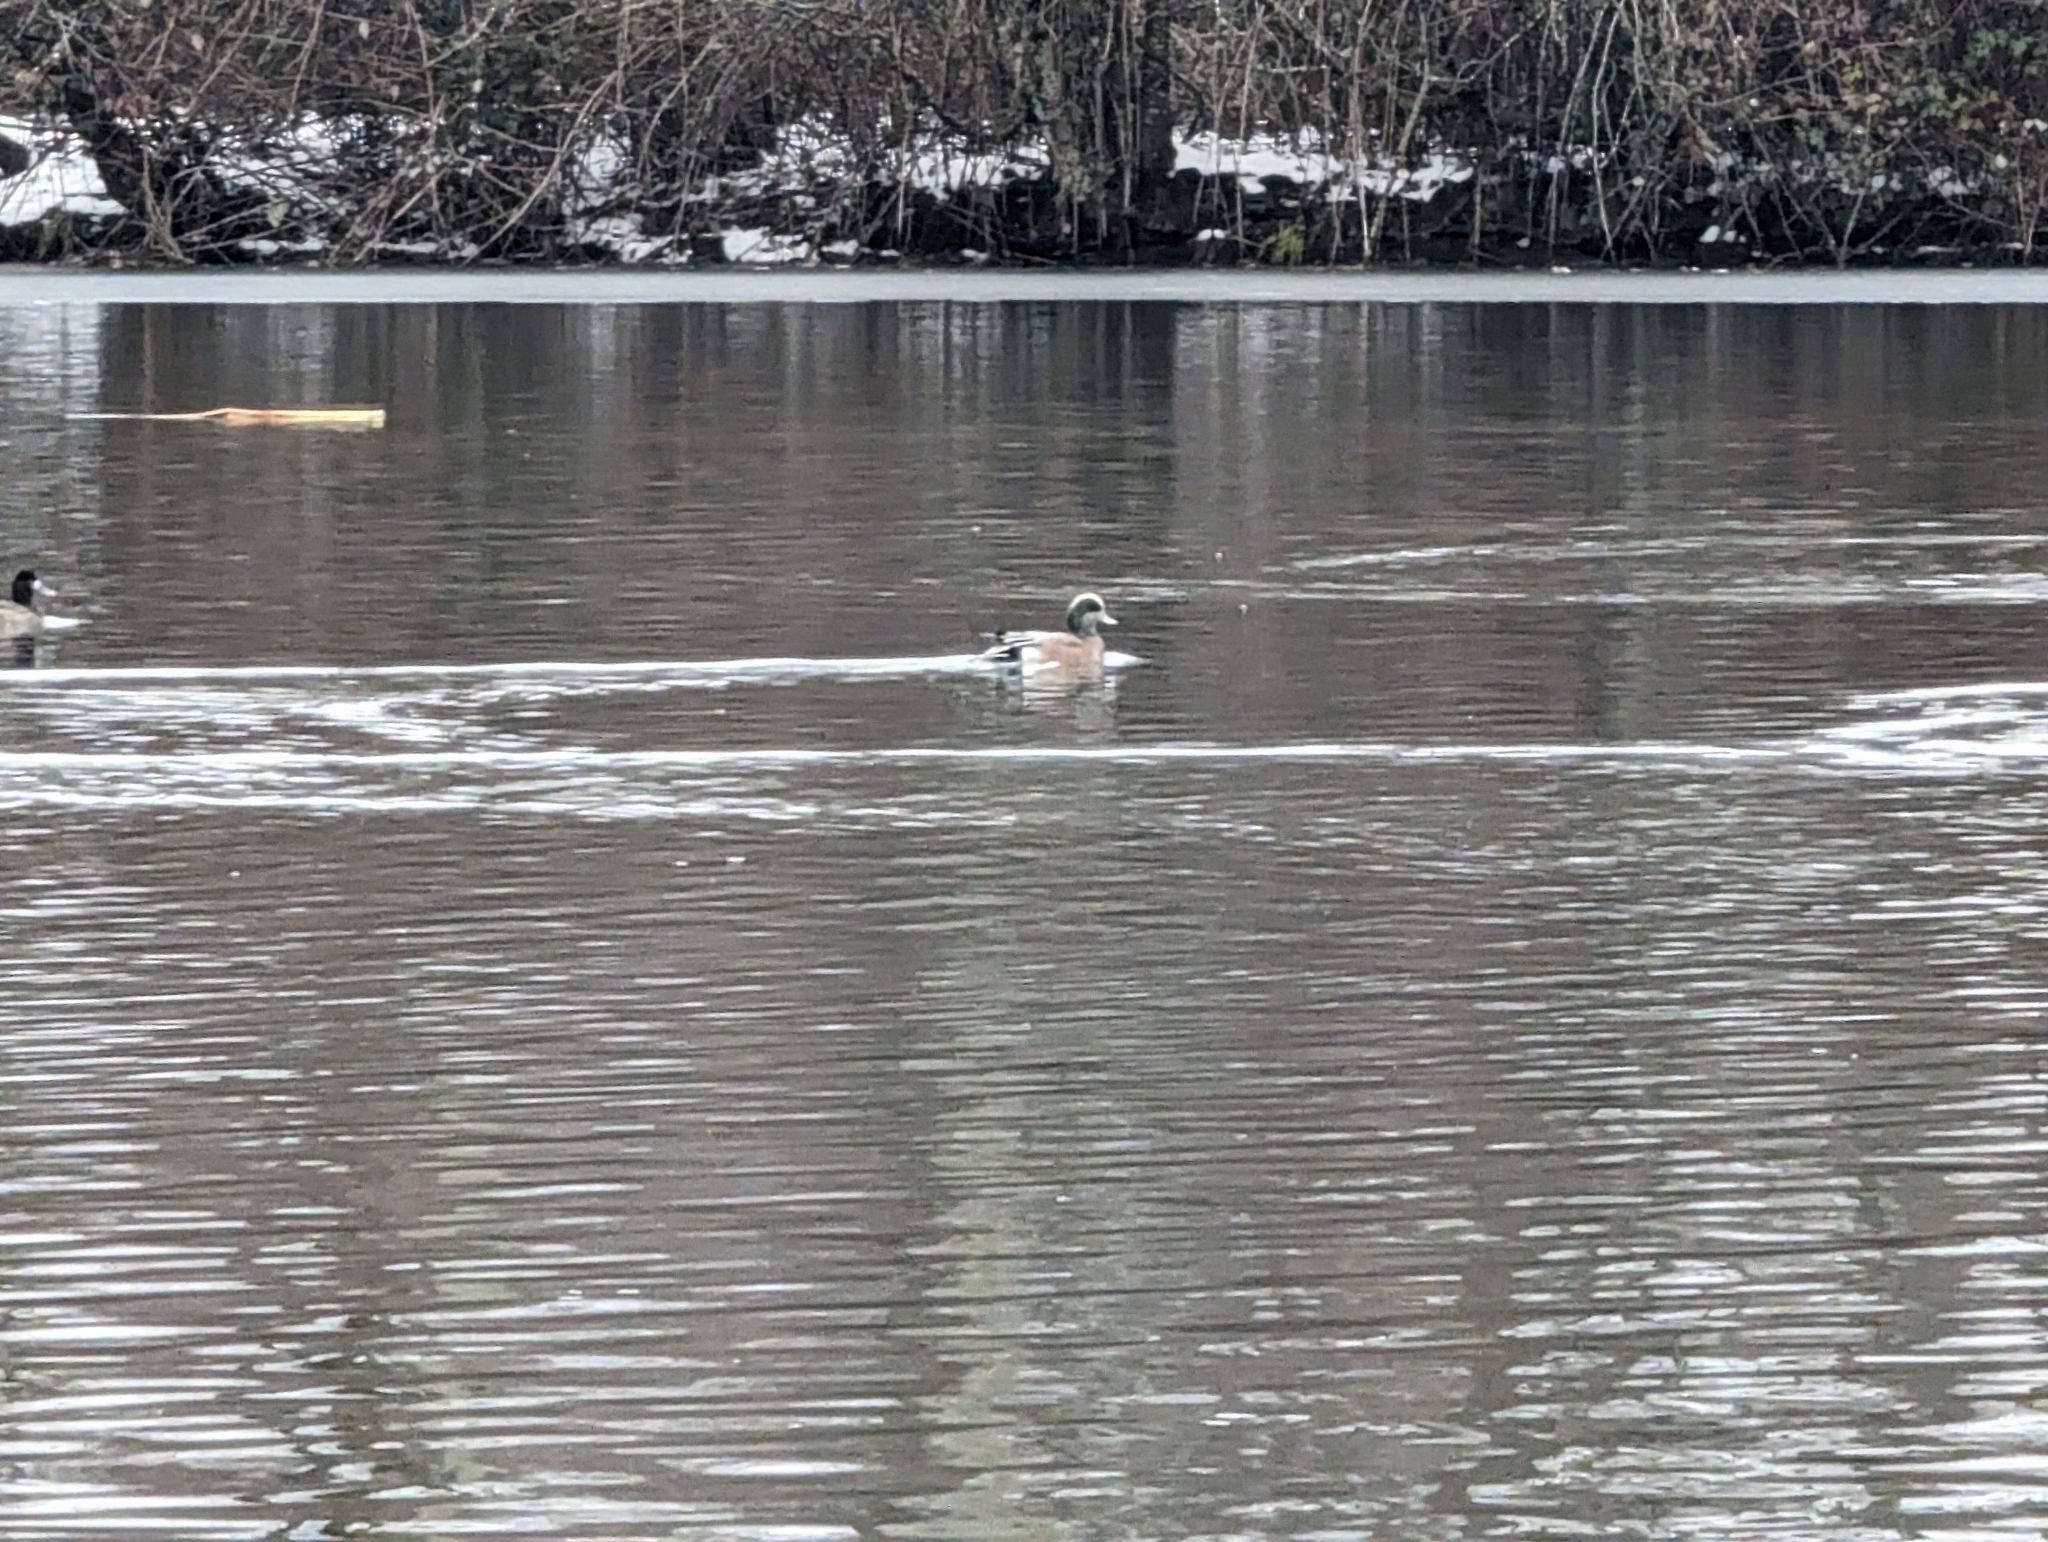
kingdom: Animalia
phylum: Chordata
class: Aves
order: Anseriformes
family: Anatidae
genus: Mareca
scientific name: Mareca americana
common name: American wigeon
